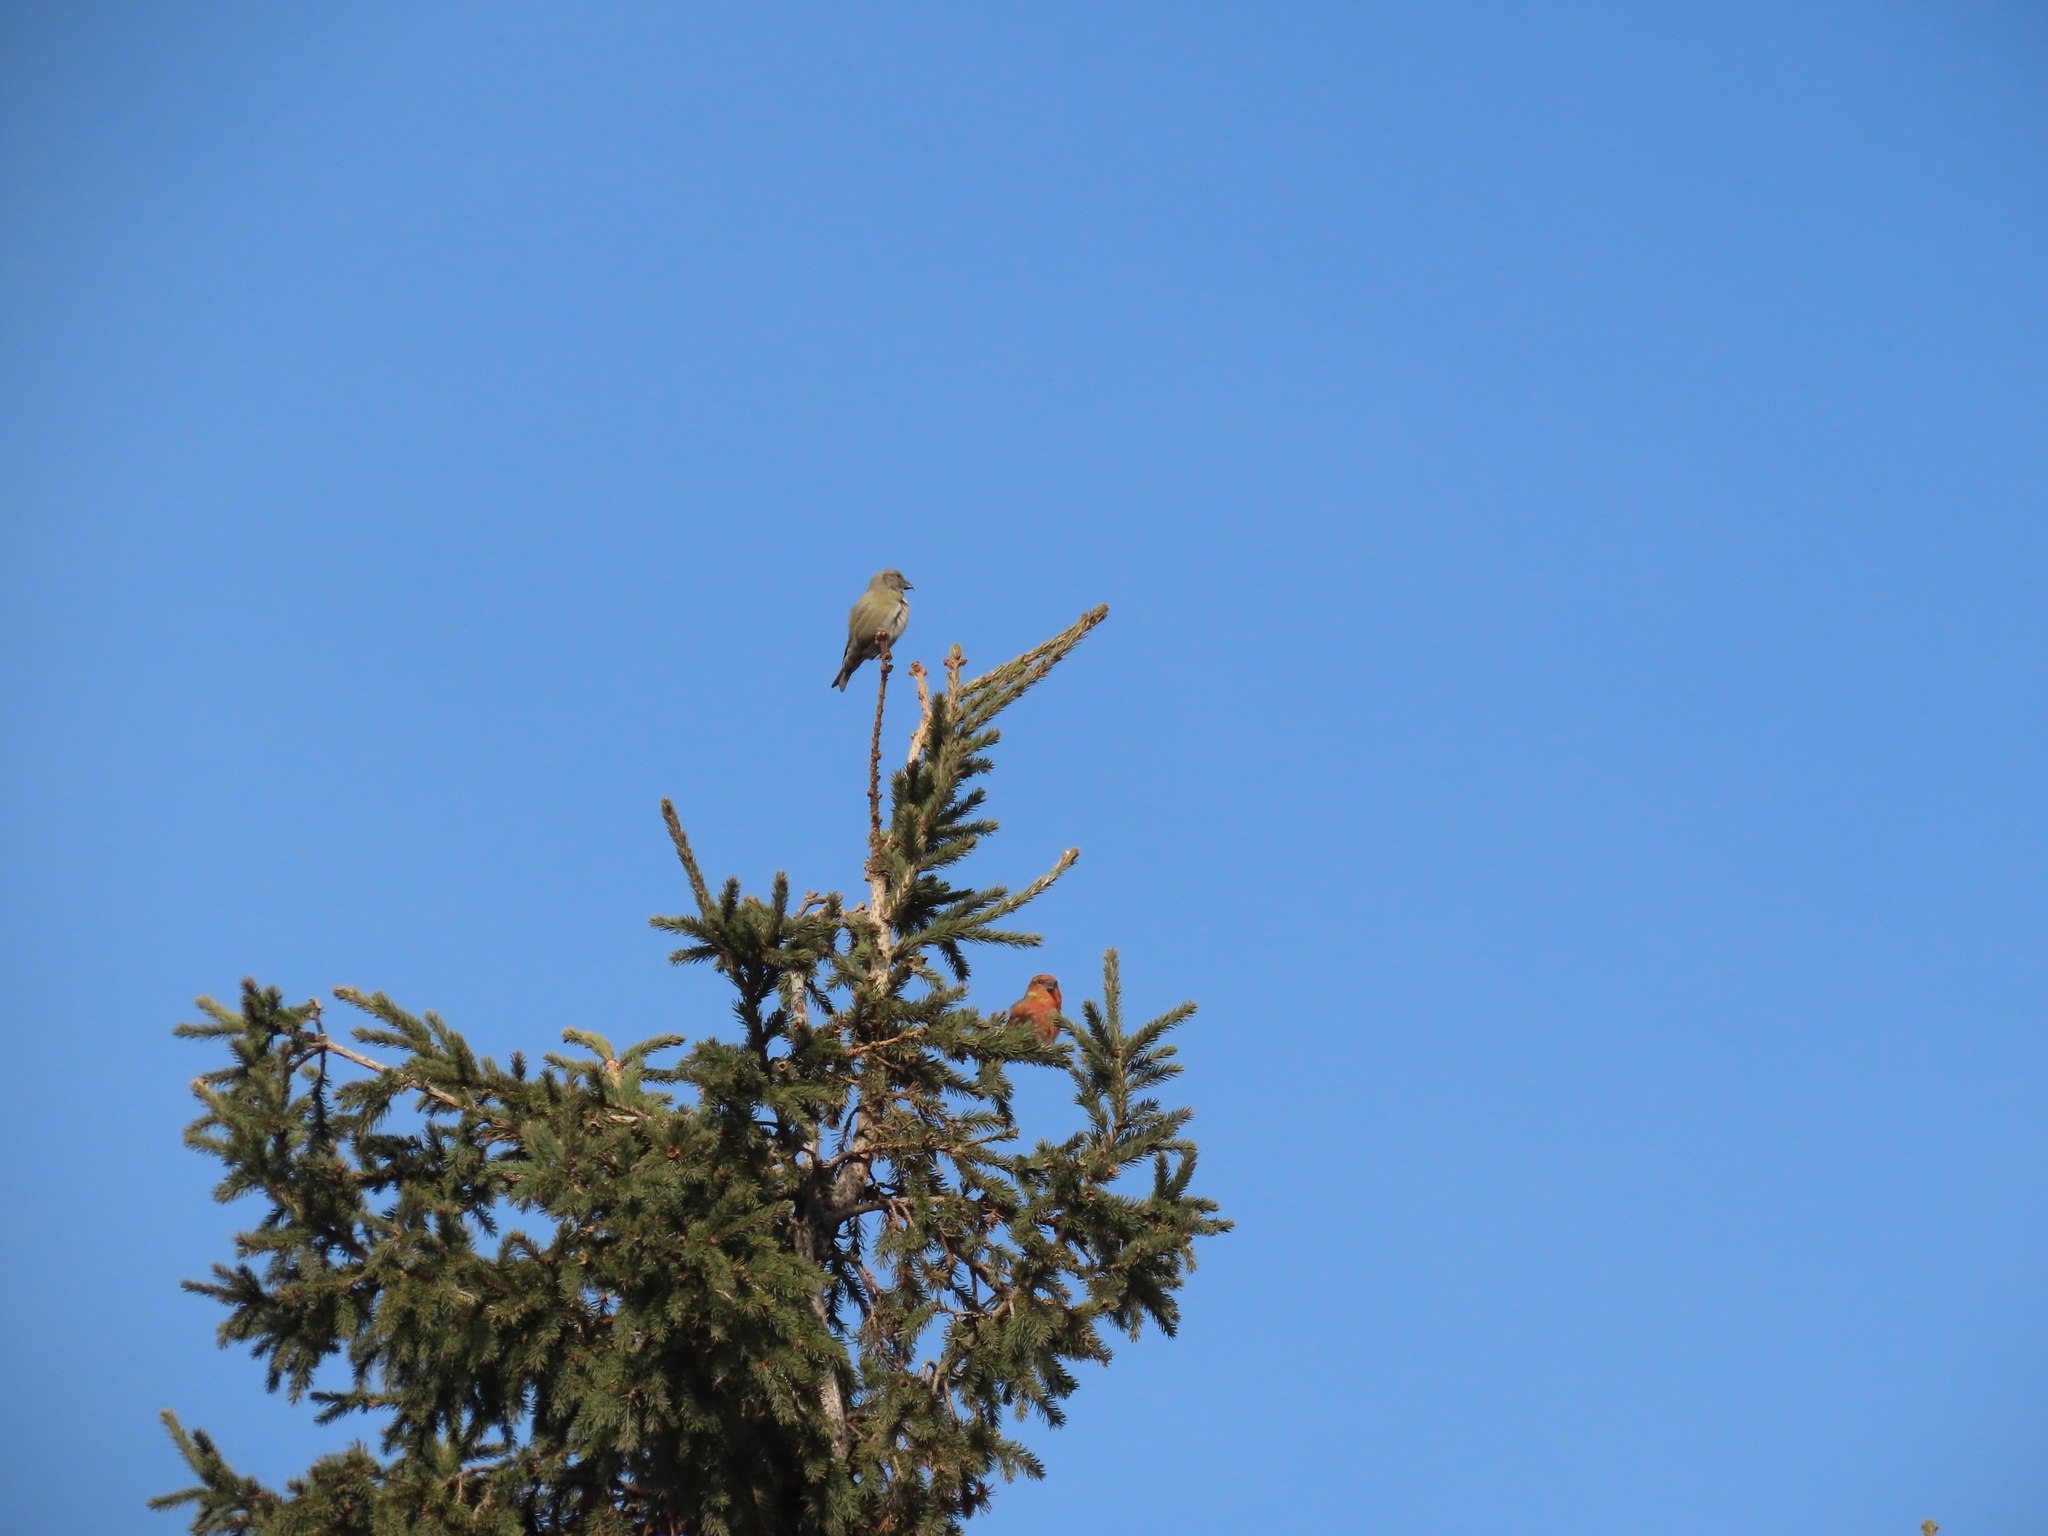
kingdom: Animalia
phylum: Chordata
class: Aves
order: Passeriformes
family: Fringillidae
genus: Loxia
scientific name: Loxia curvirostra
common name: Red crossbill
